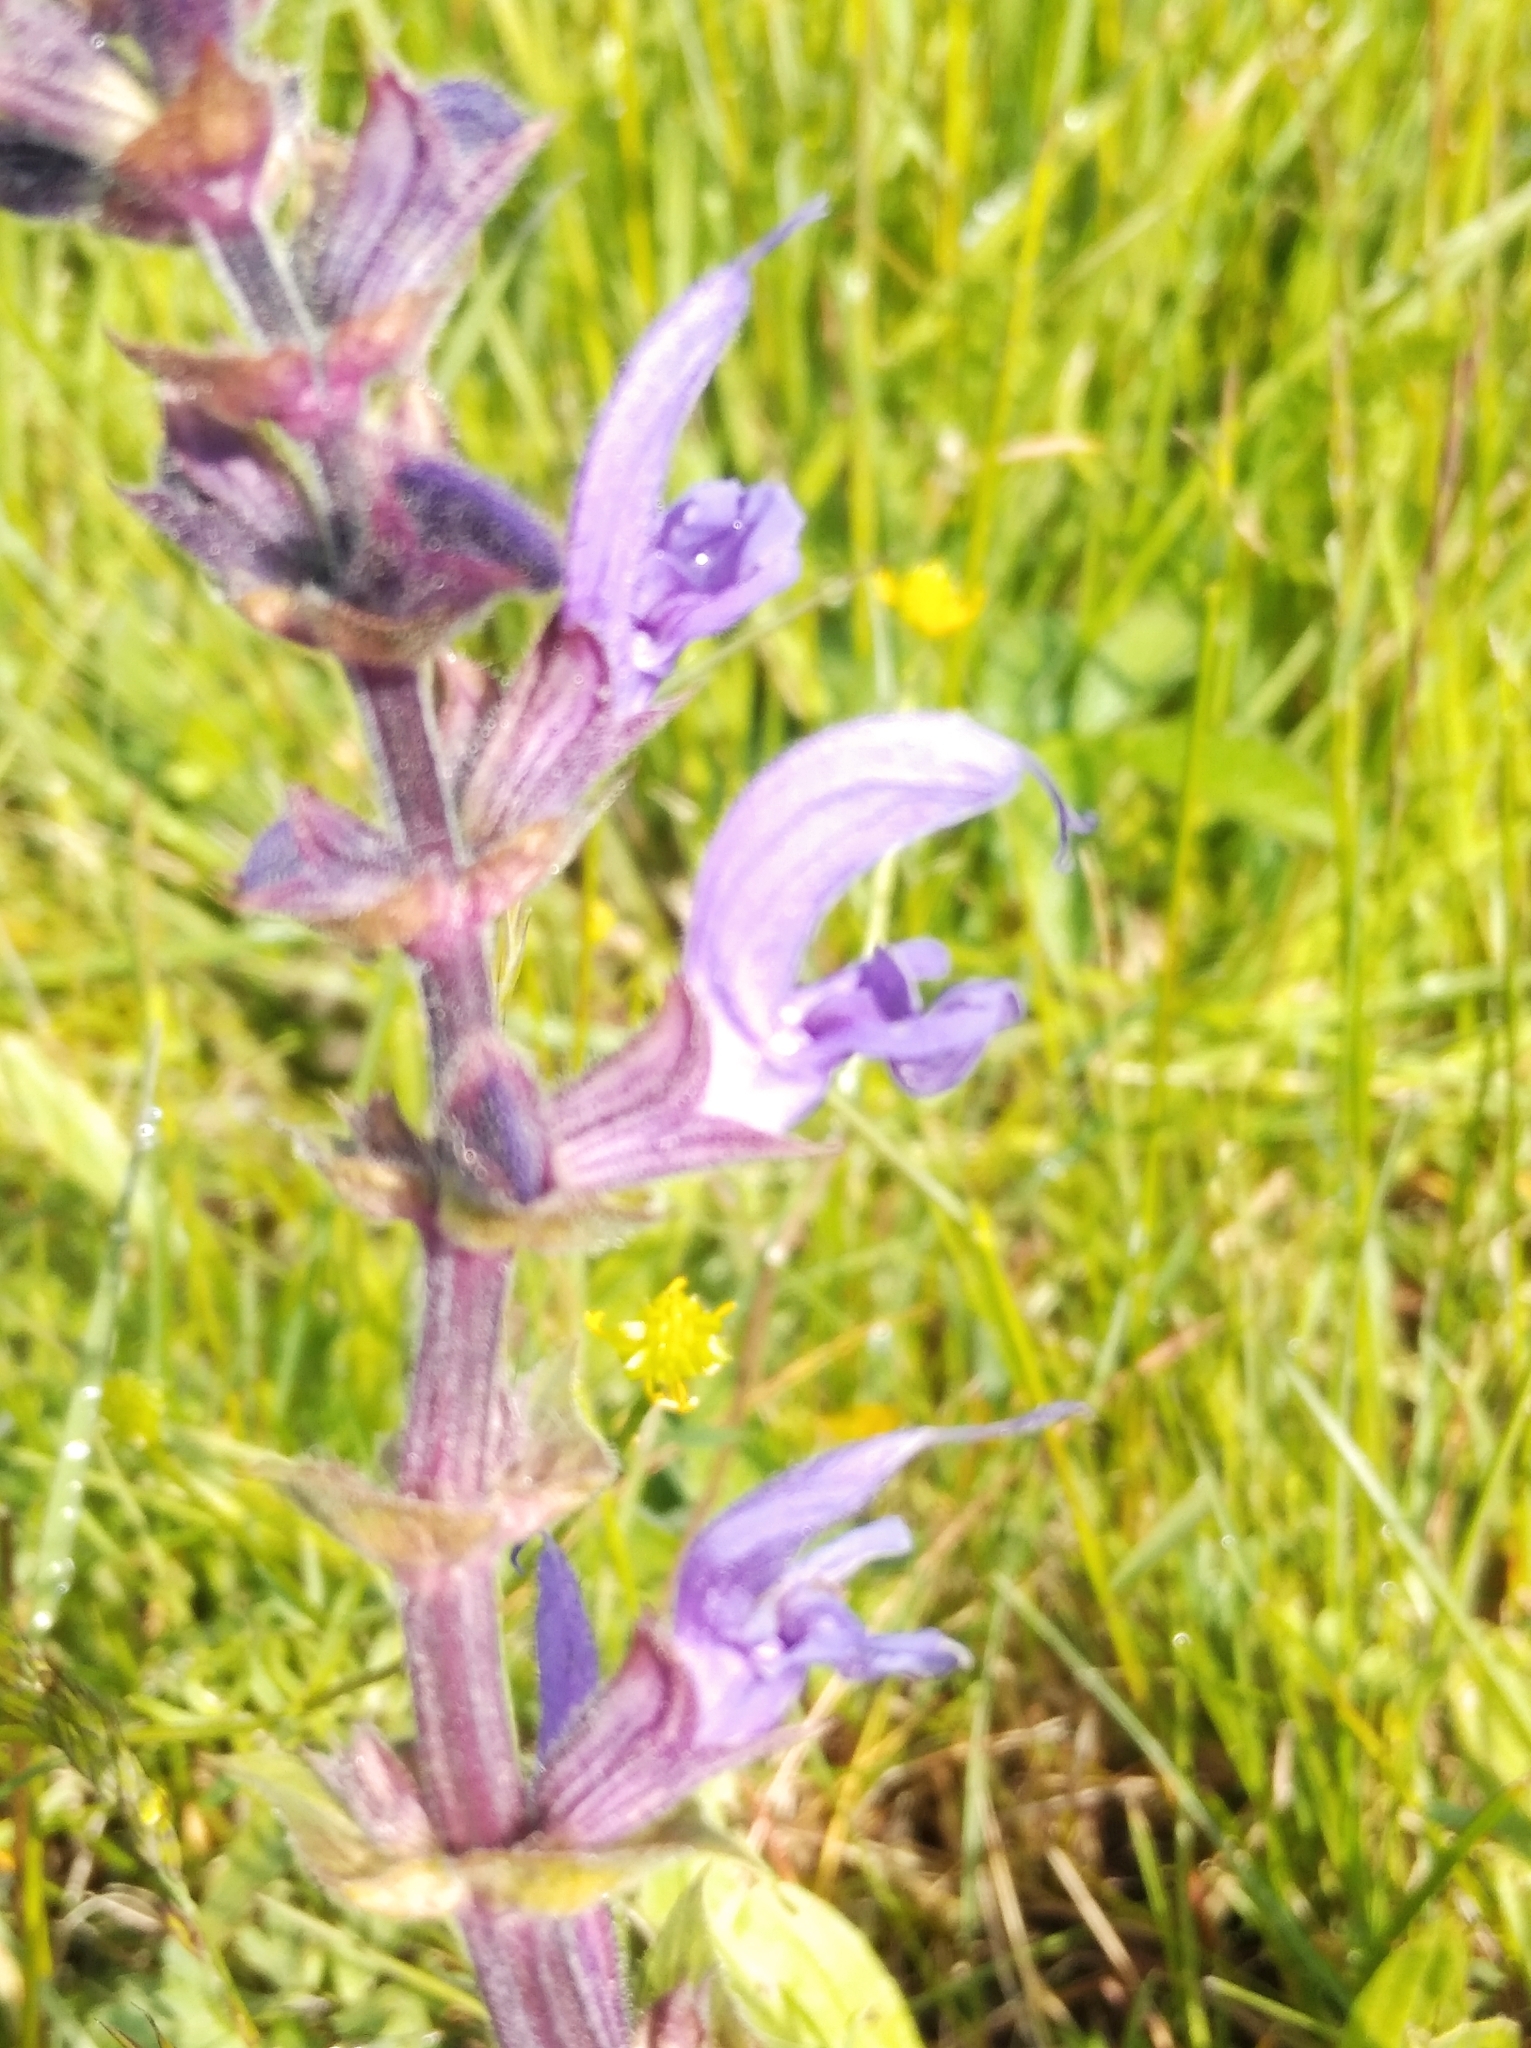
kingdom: Plantae
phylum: Tracheophyta
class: Magnoliopsida
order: Lamiales
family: Lamiaceae
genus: Salvia
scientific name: Salvia pratensis
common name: Meadow sage
